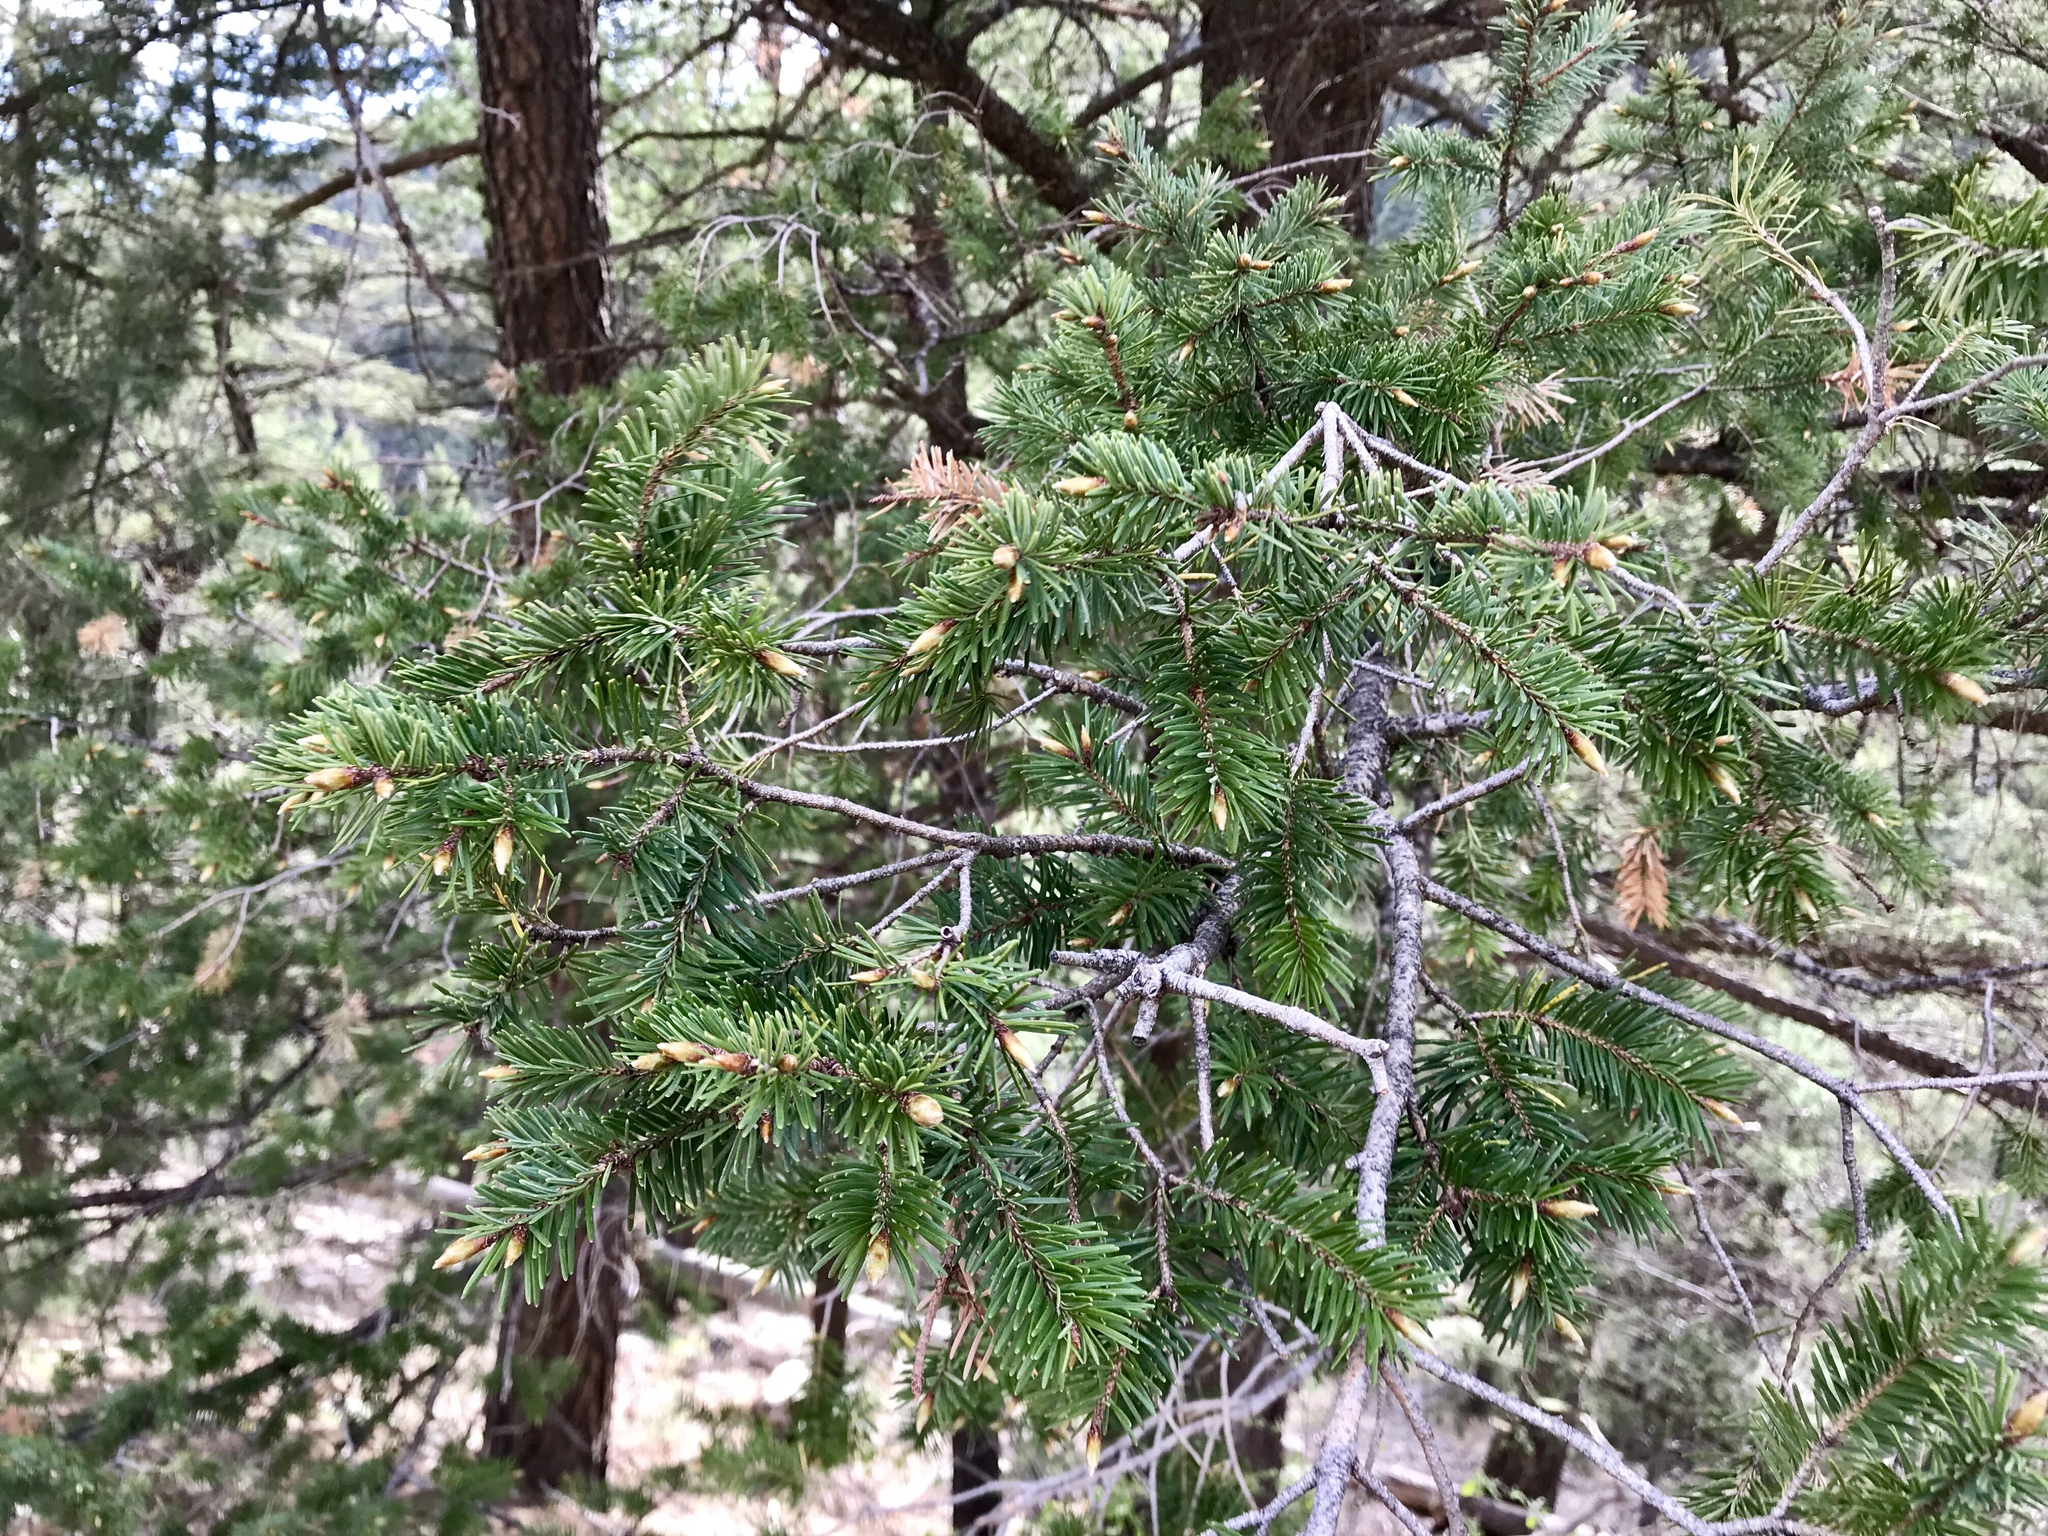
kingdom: Plantae
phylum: Tracheophyta
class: Pinopsida
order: Pinales
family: Pinaceae
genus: Pseudotsuga
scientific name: Pseudotsuga menziesii
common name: Douglas fir
